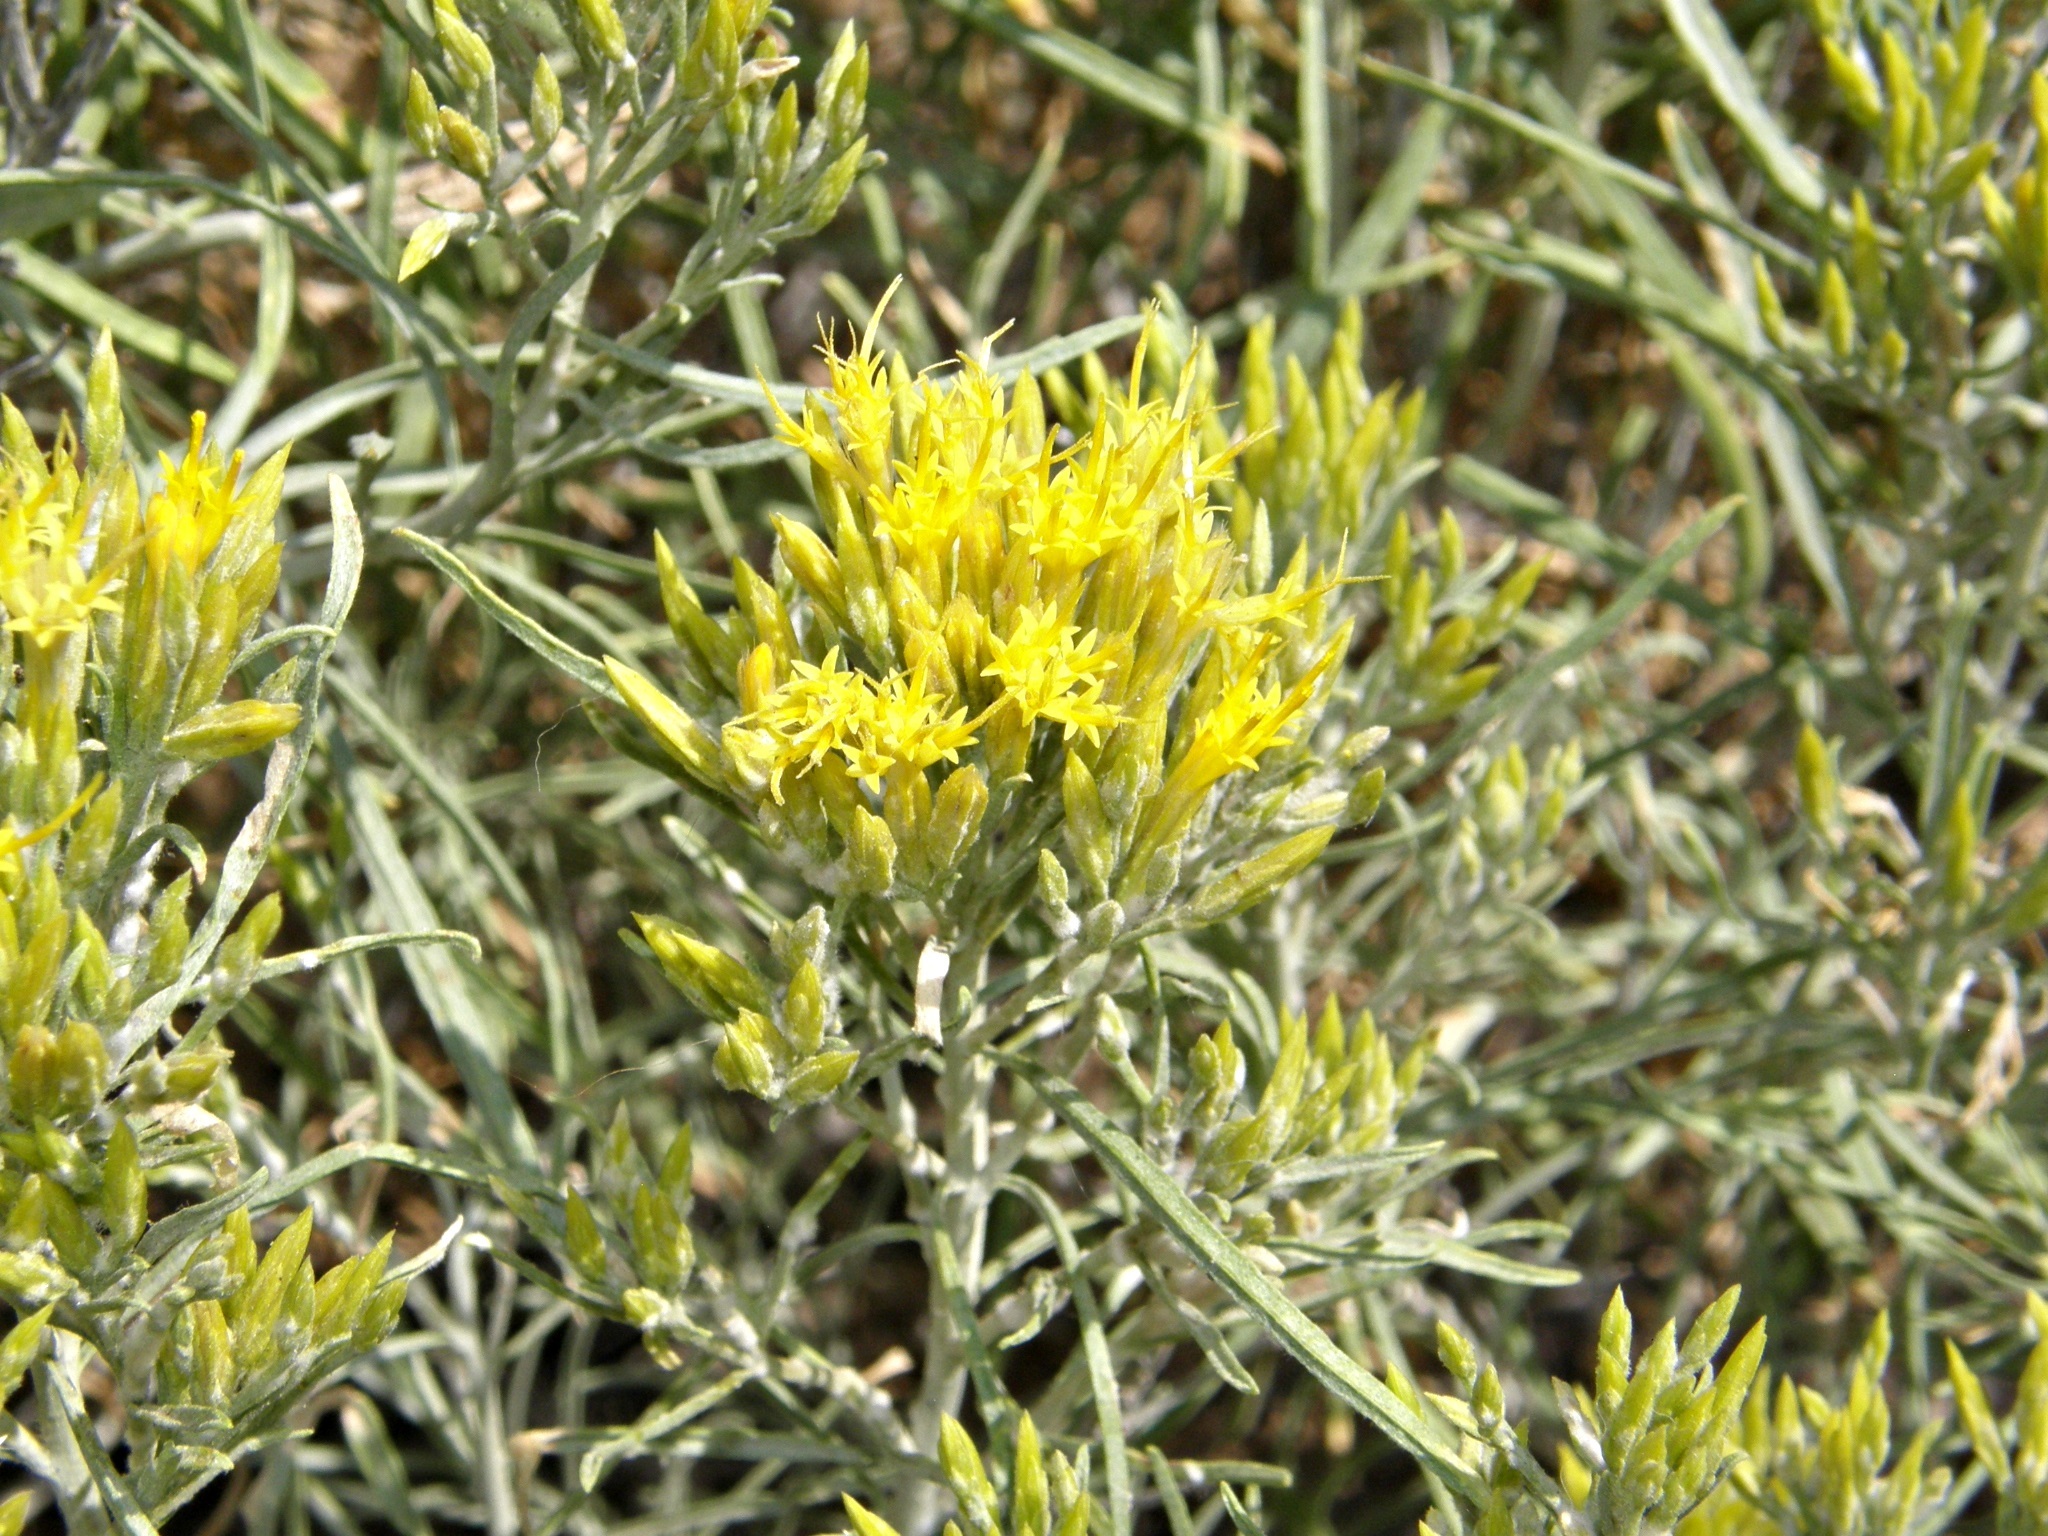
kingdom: Plantae
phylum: Tracheophyta
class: Magnoliopsida
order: Asterales
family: Asteraceae
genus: Ericameria
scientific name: Ericameria nauseosa
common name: Rubber rabbitbrush
